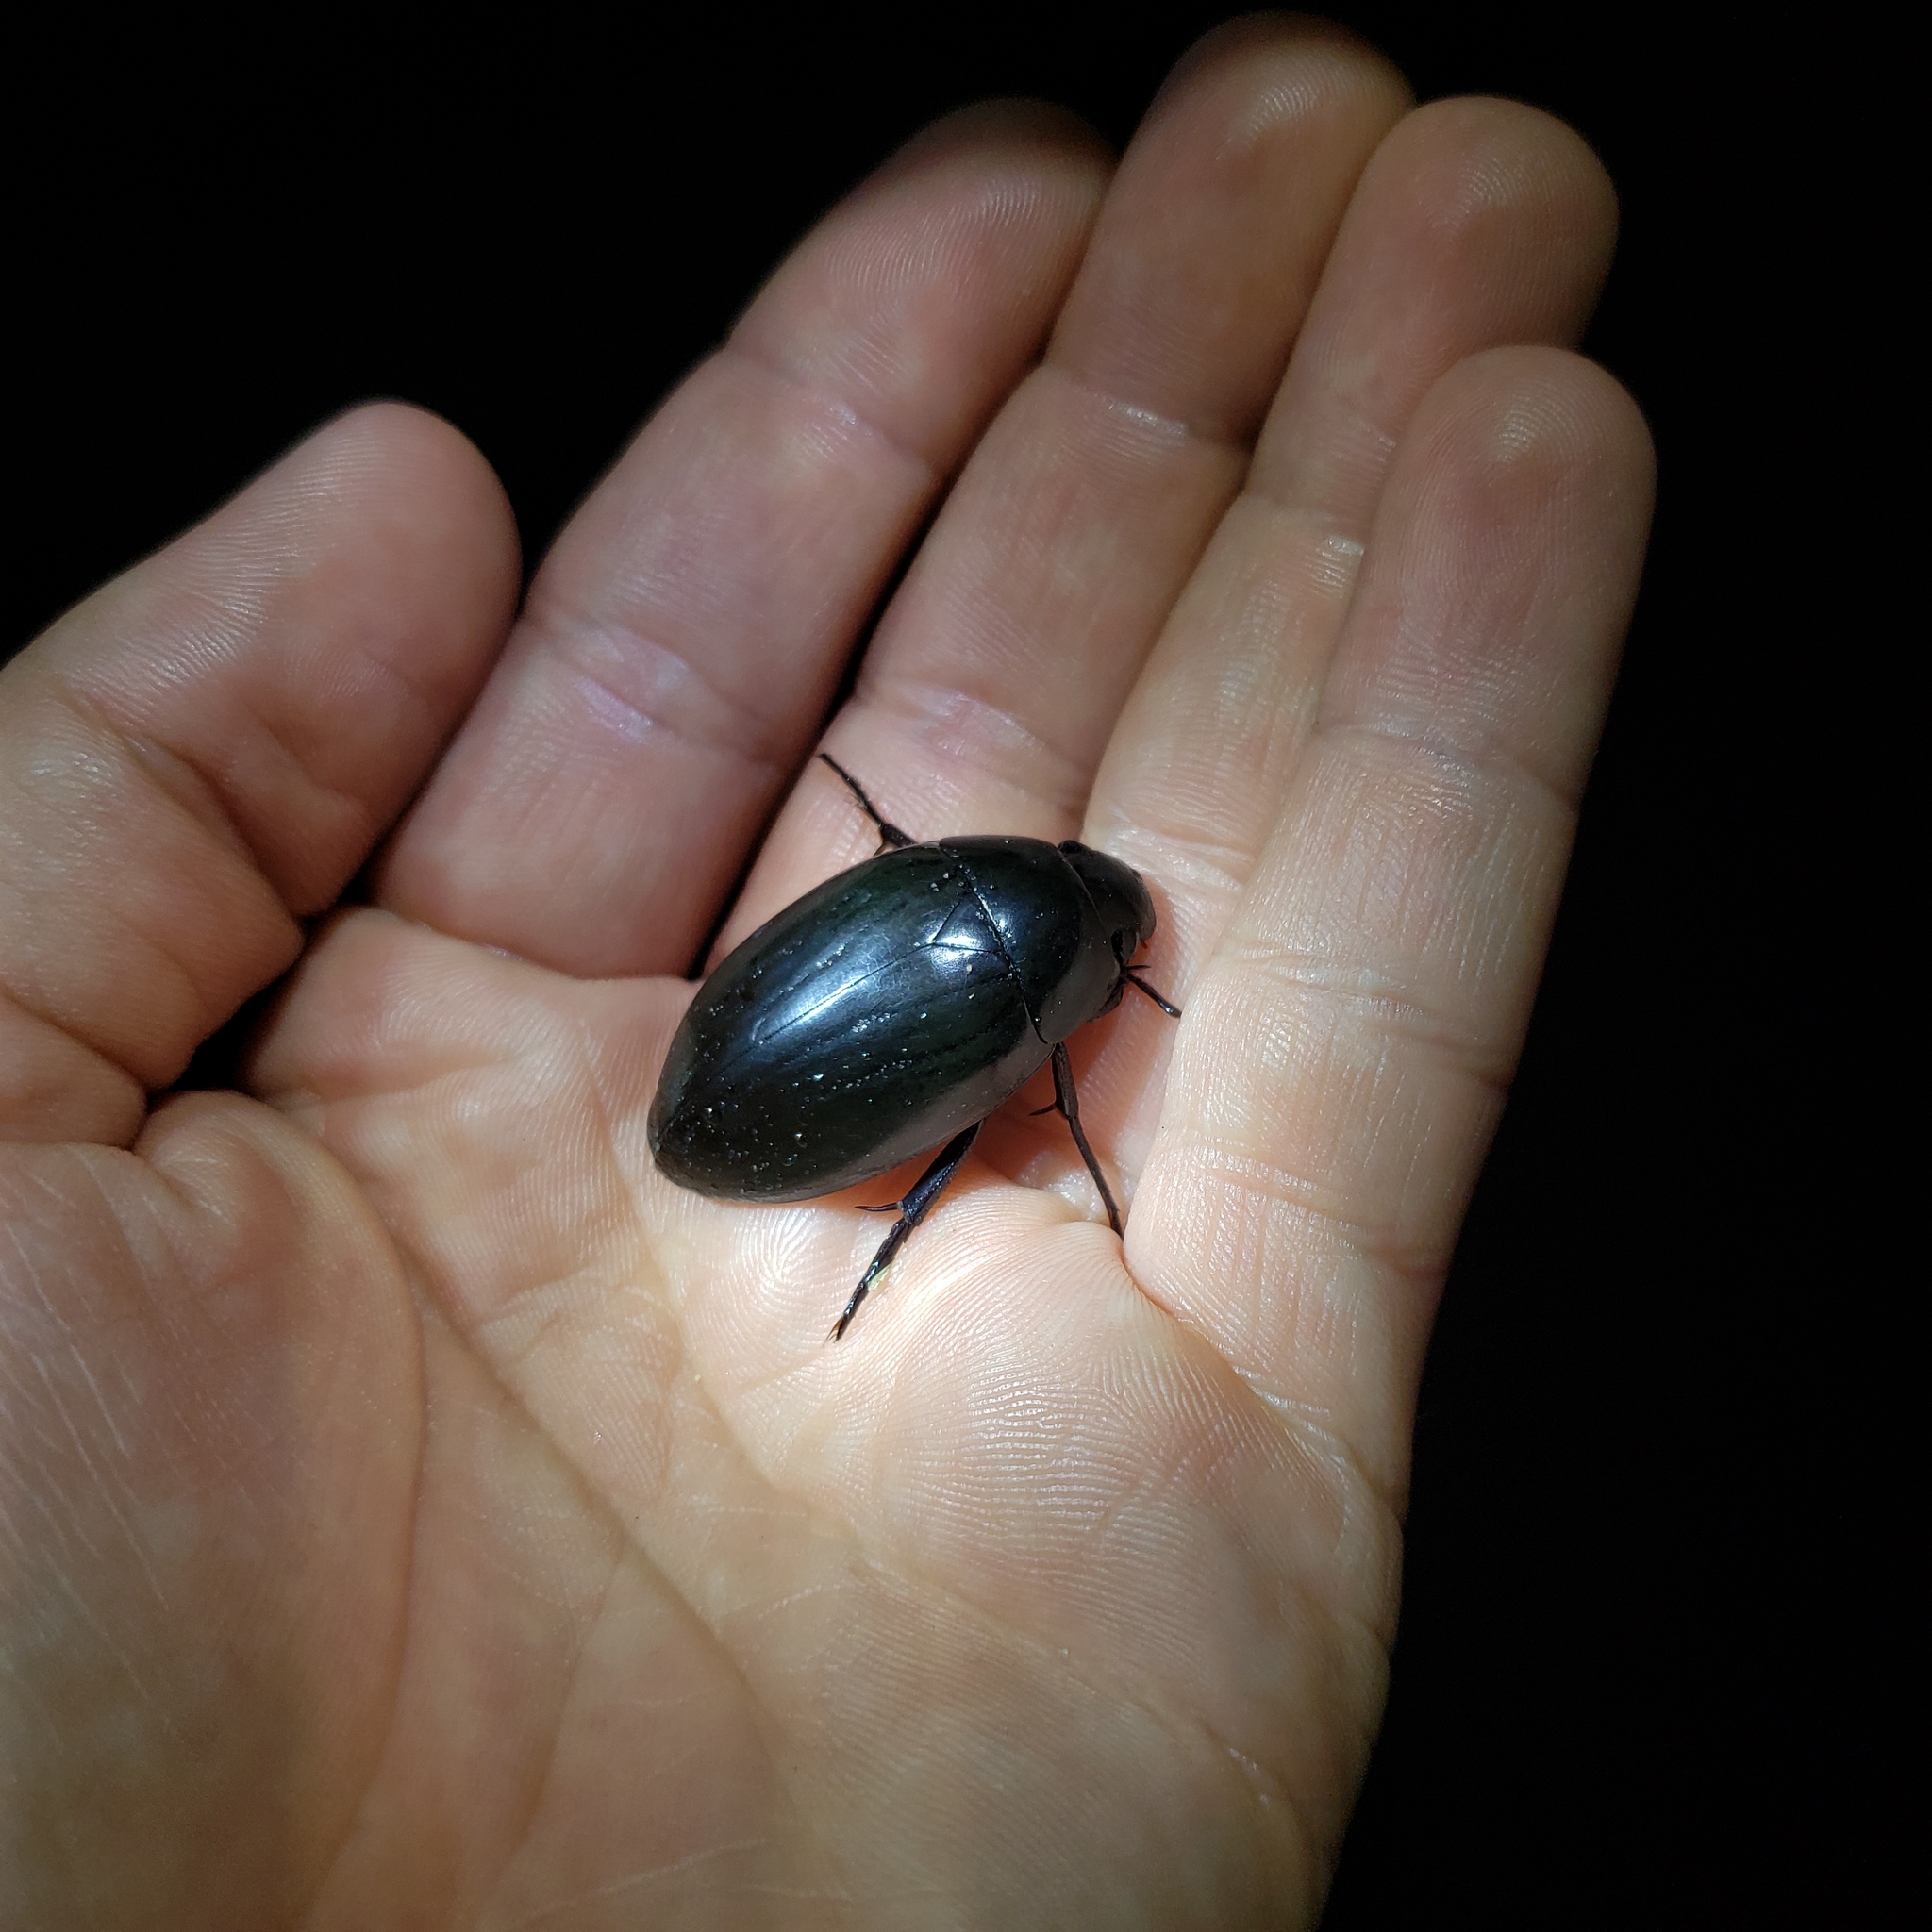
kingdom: Animalia
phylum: Arthropoda
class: Insecta
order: Coleoptera
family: Hydrophilidae
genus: Hydrophilus
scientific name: Hydrophilus ovatus
